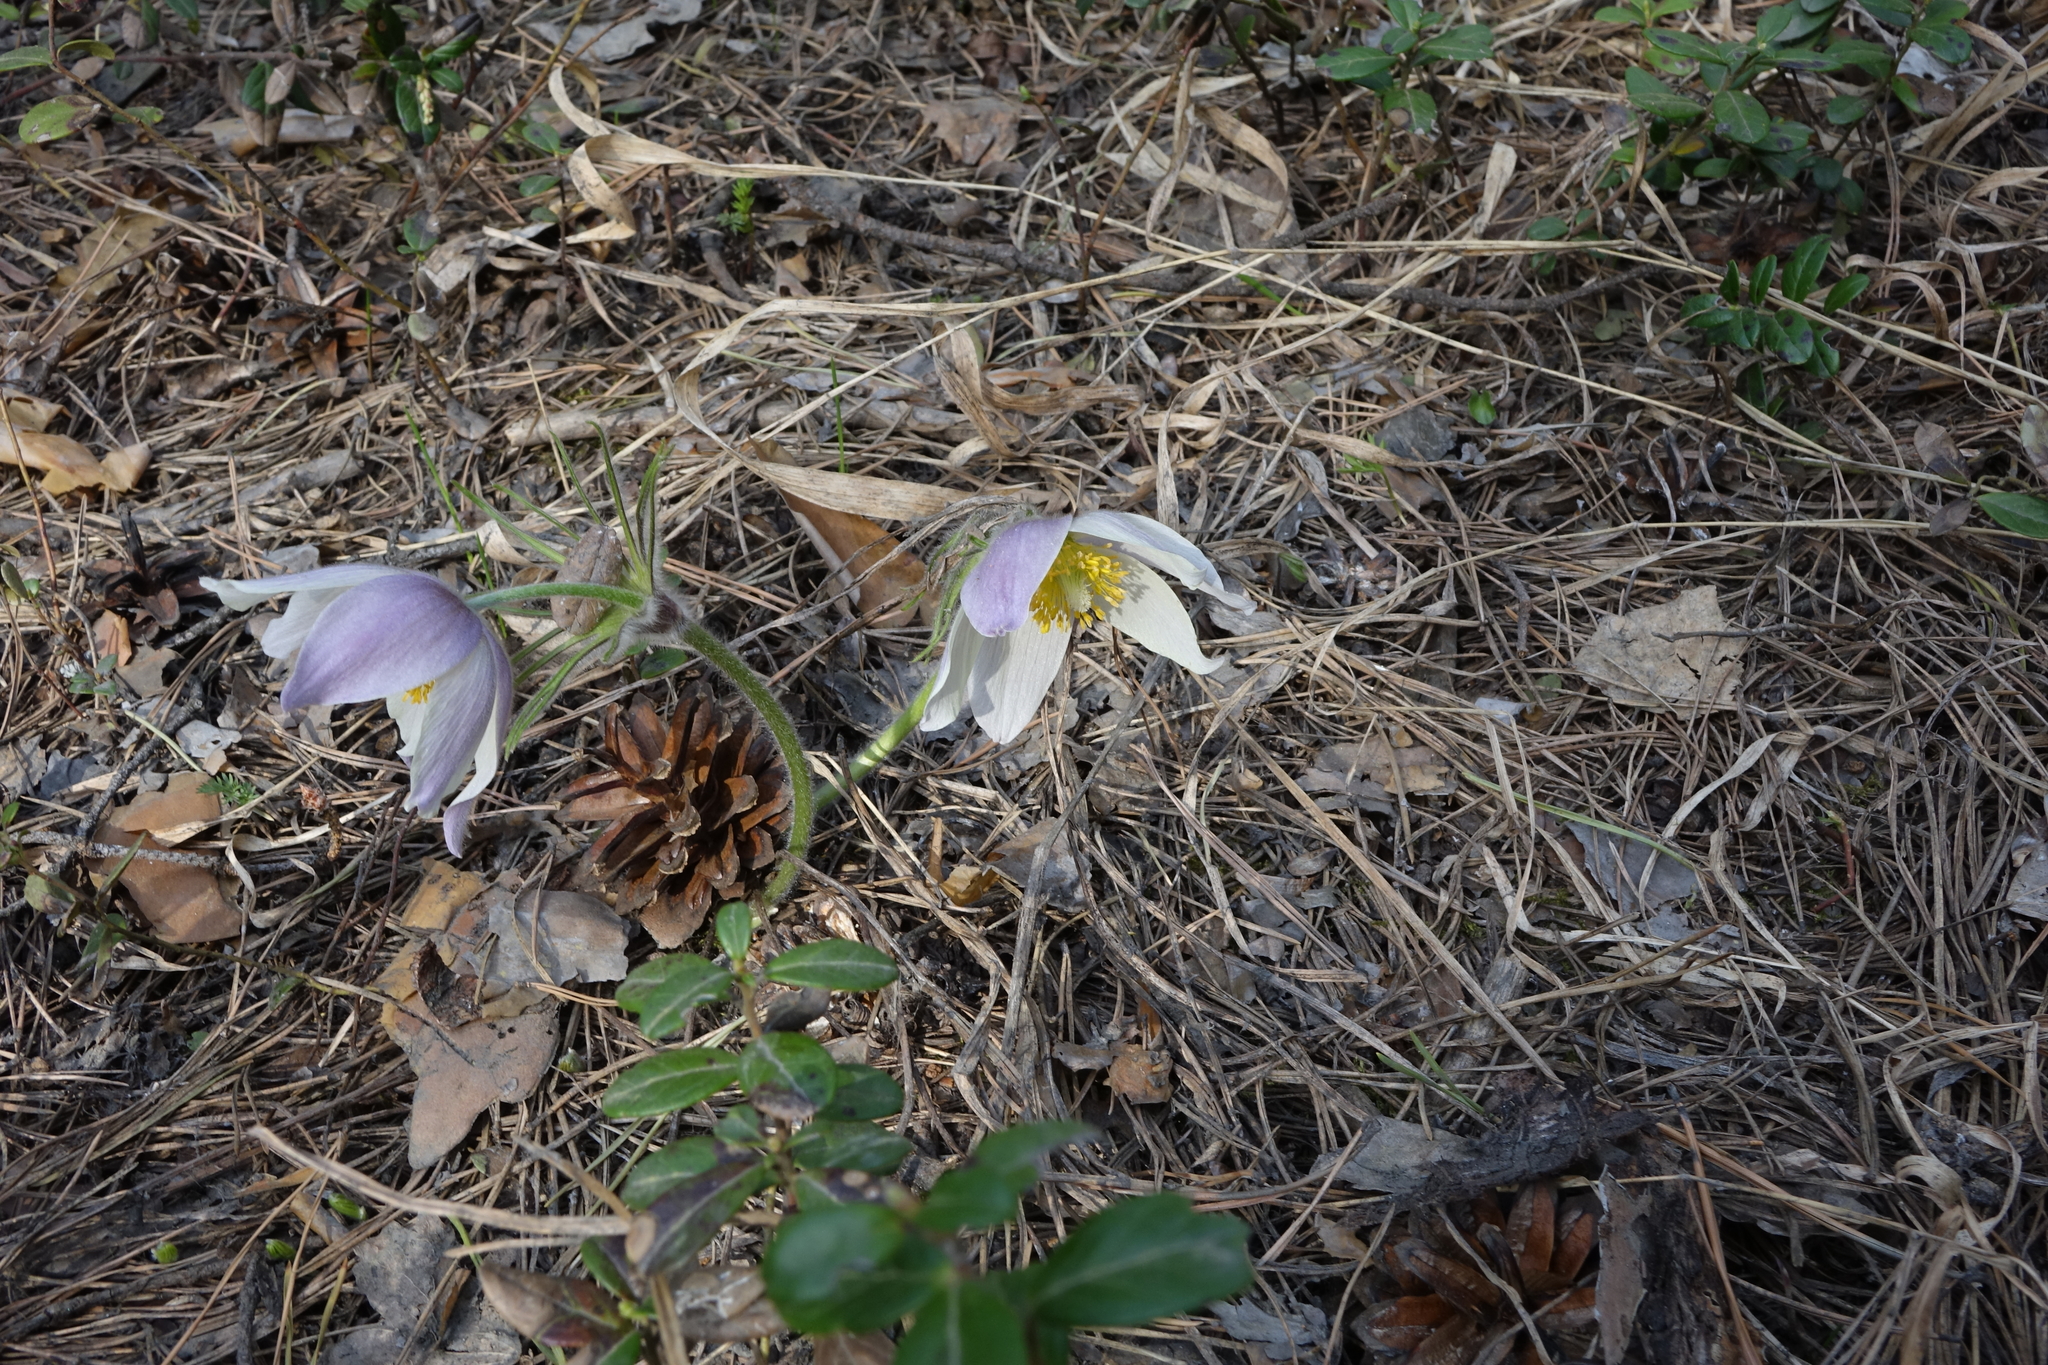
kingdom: Plantae
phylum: Tracheophyta
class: Magnoliopsida
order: Ranunculales
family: Ranunculaceae
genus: Pulsatilla
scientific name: Pulsatilla patens
